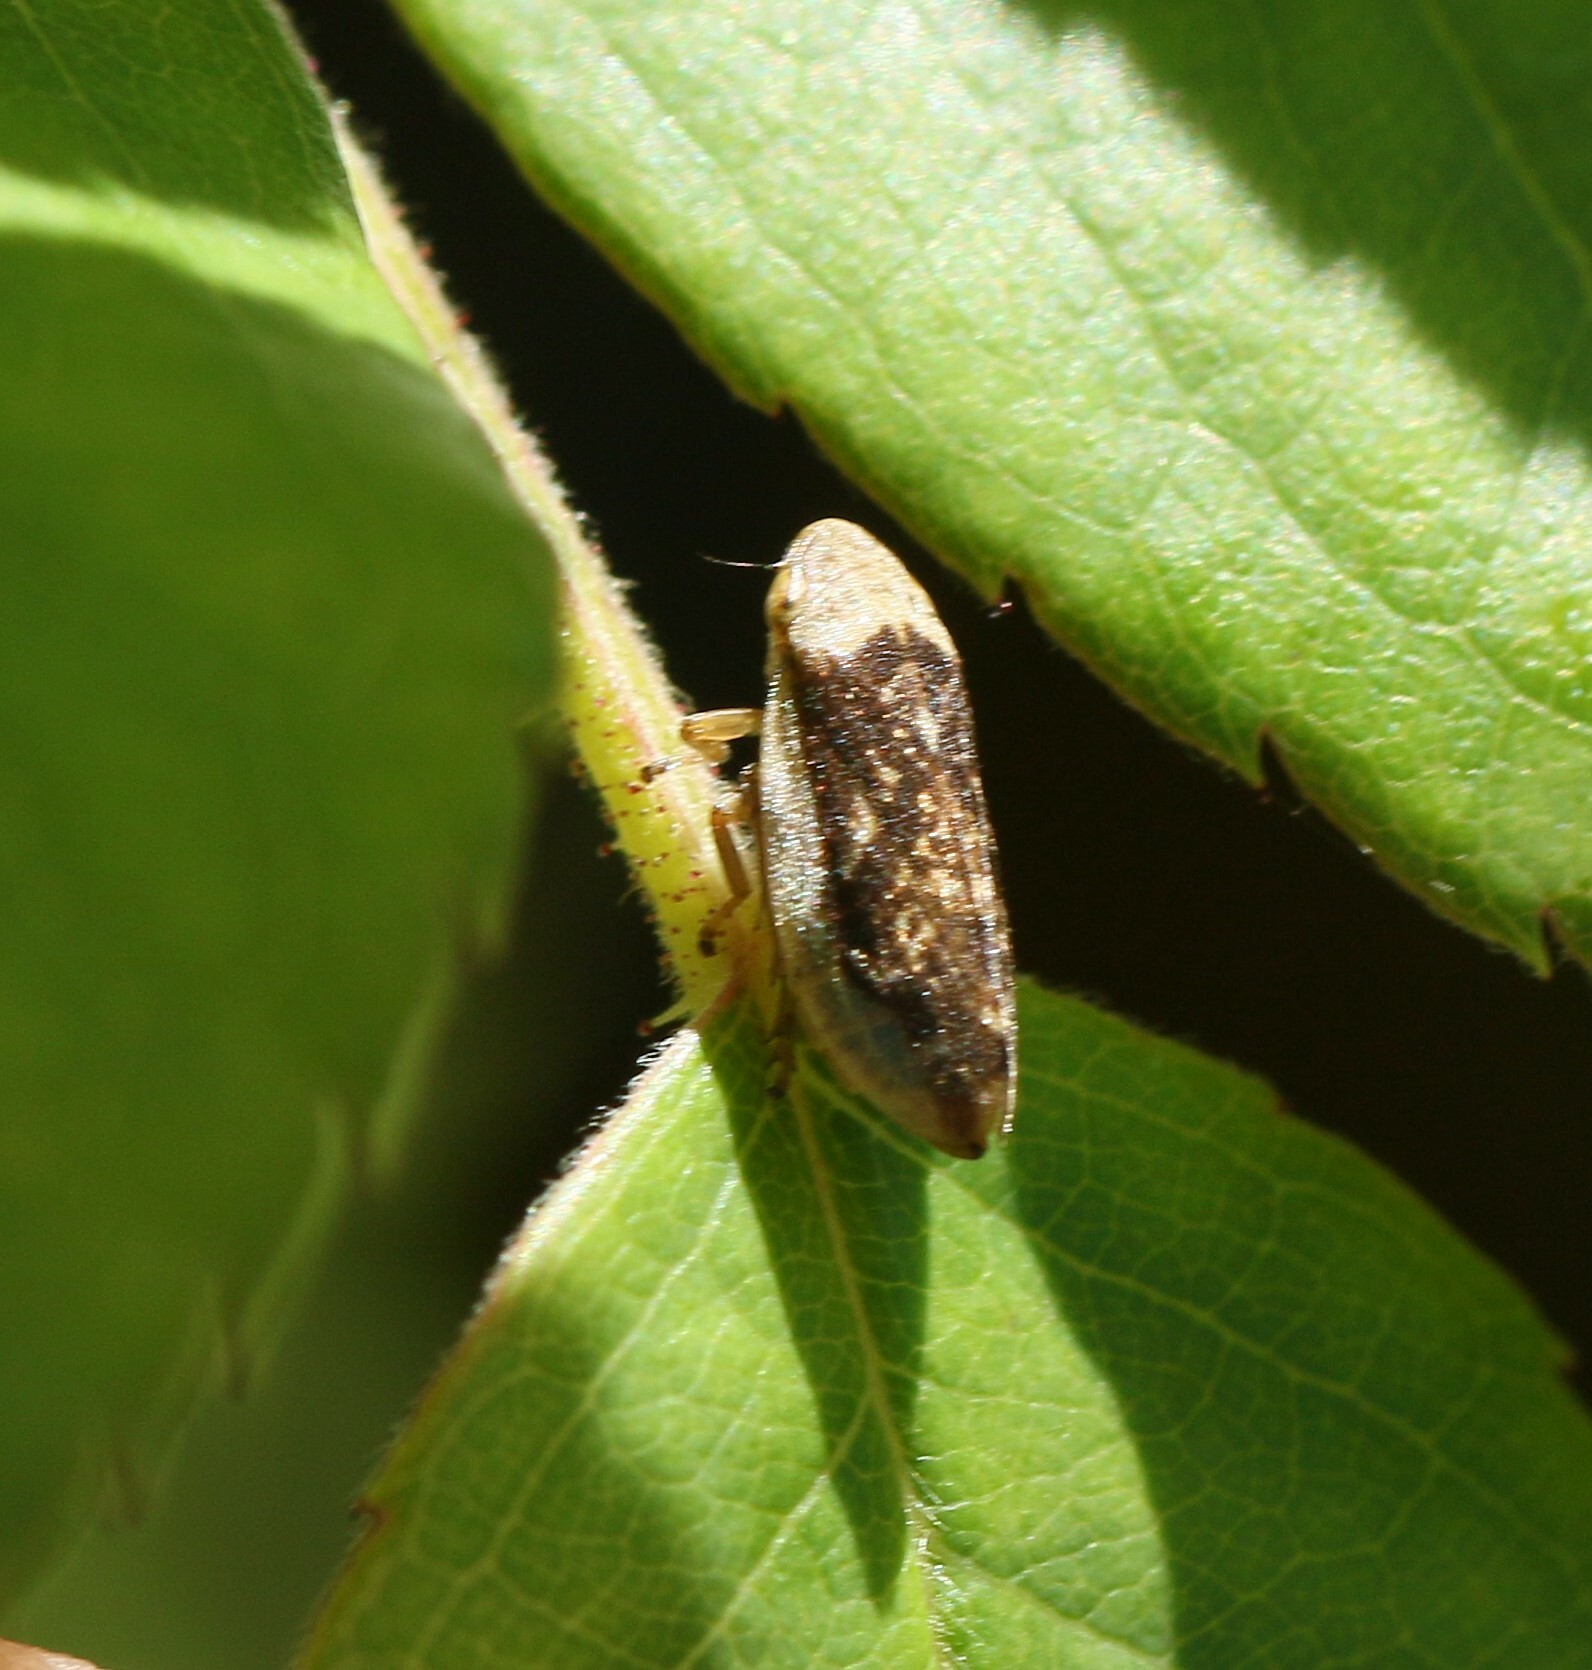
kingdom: Animalia
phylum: Arthropoda
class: Insecta
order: Hemiptera
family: Aphrophoridae
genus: Philaenus
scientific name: Philaenus spumarius
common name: Meadow spittlebug
